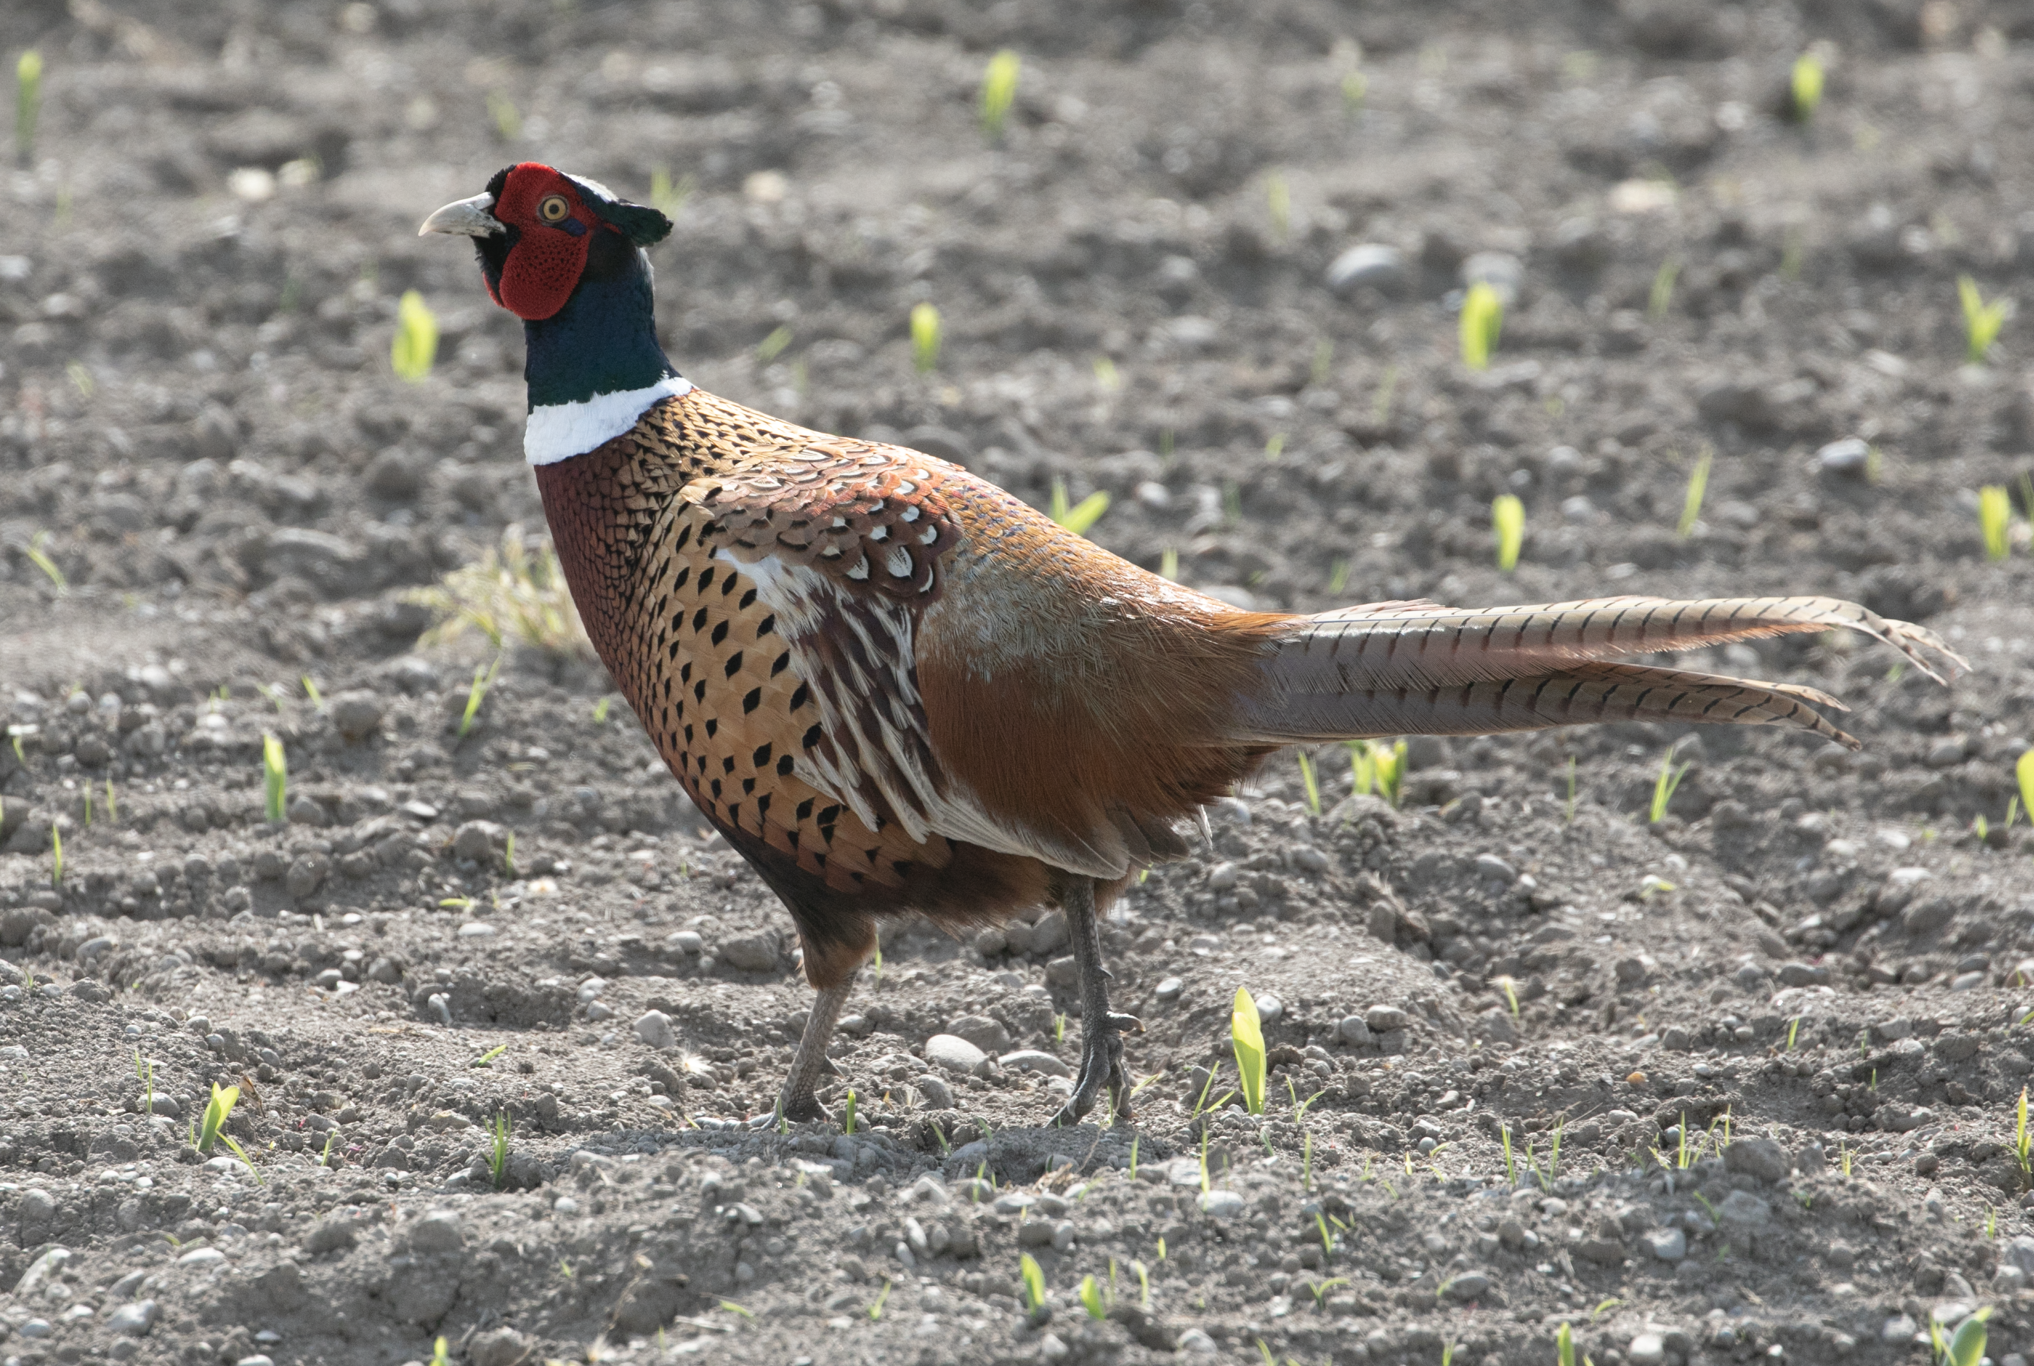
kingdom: Animalia
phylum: Chordata
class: Aves
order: Galliformes
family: Phasianidae
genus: Phasianus
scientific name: Phasianus colchicus
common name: Common pheasant
